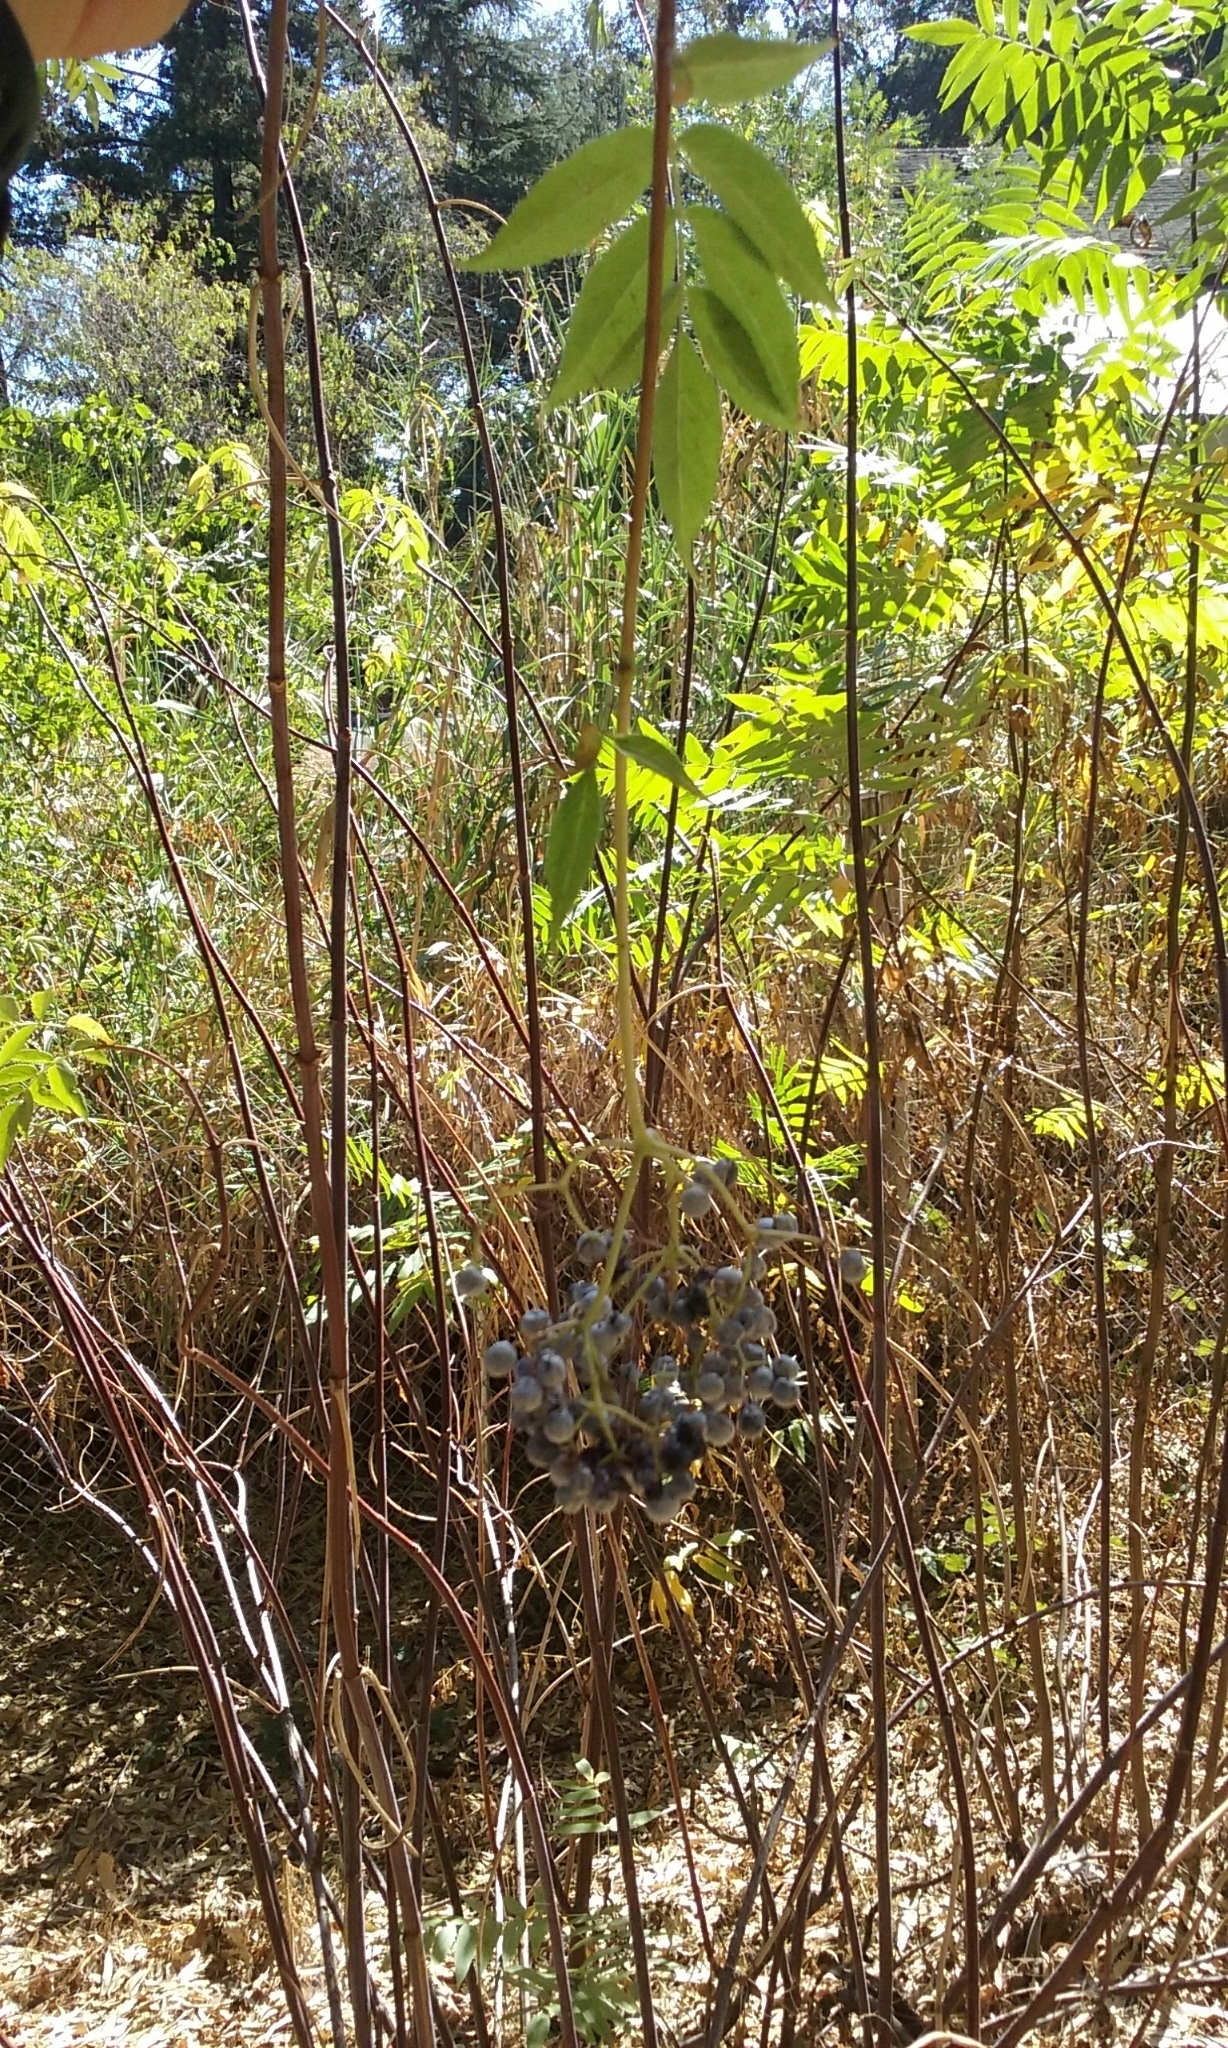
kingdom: Plantae
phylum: Tracheophyta
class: Magnoliopsida
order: Dipsacales
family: Viburnaceae
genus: Sambucus
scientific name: Sambucus cerulea
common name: Blue elder
